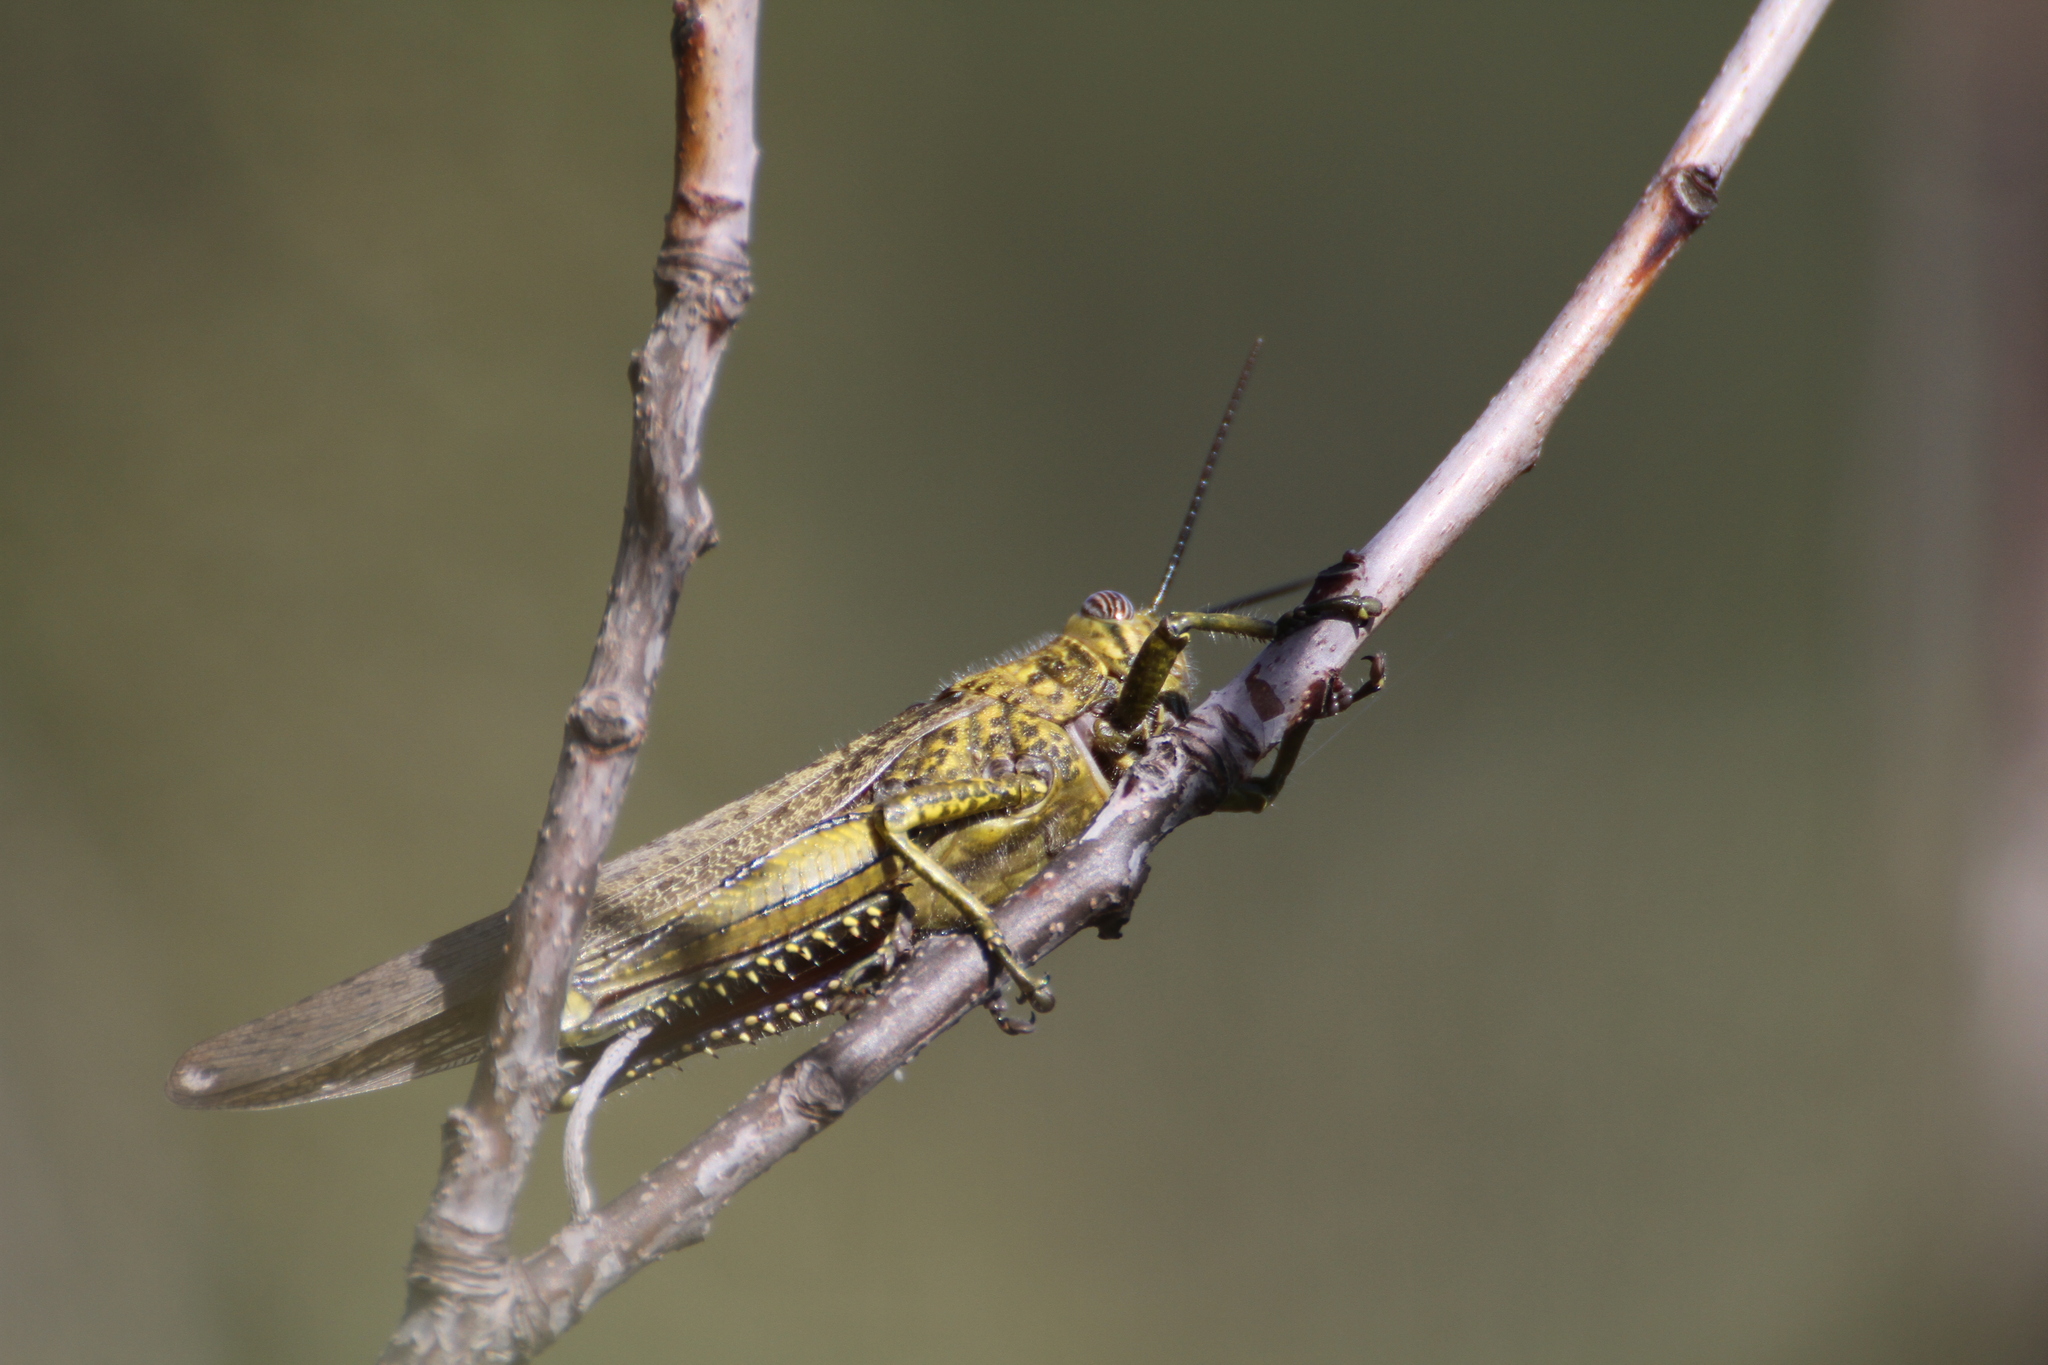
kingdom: Animalia
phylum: Arthropoda
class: Insecta
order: Orthoptera
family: Acrididae
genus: Anacridium
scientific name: Anacridium aegyptium
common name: Egyptian grasshopper
